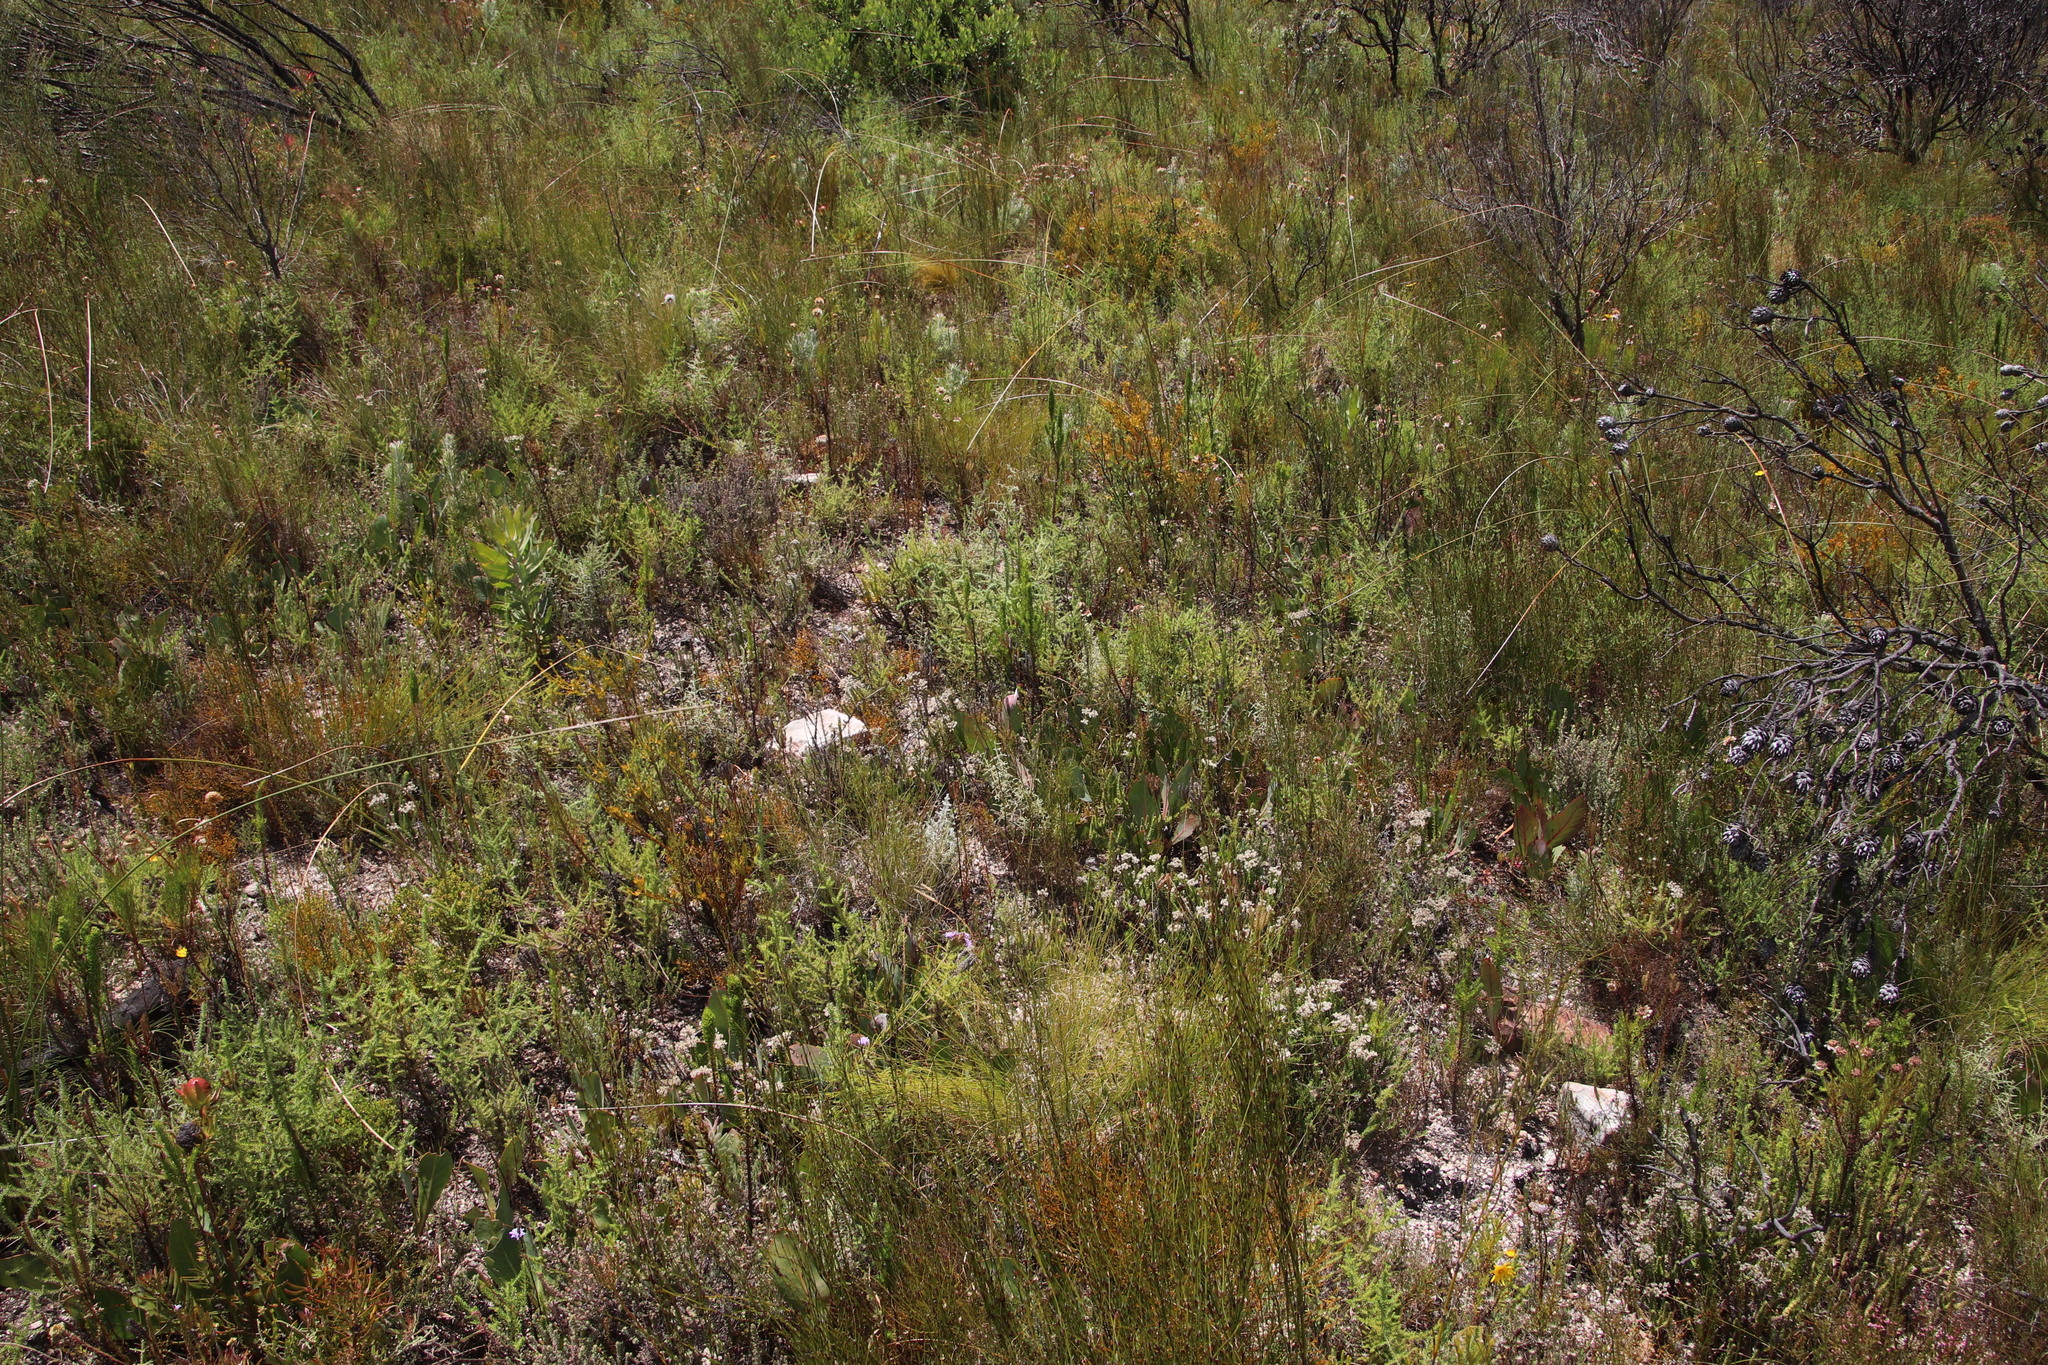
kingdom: Plantae
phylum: Tracheophyta
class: Magnoliopsida
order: Proteales
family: Proteaceae
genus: Protea
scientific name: Protea acaulos
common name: Common ground sugarbush
